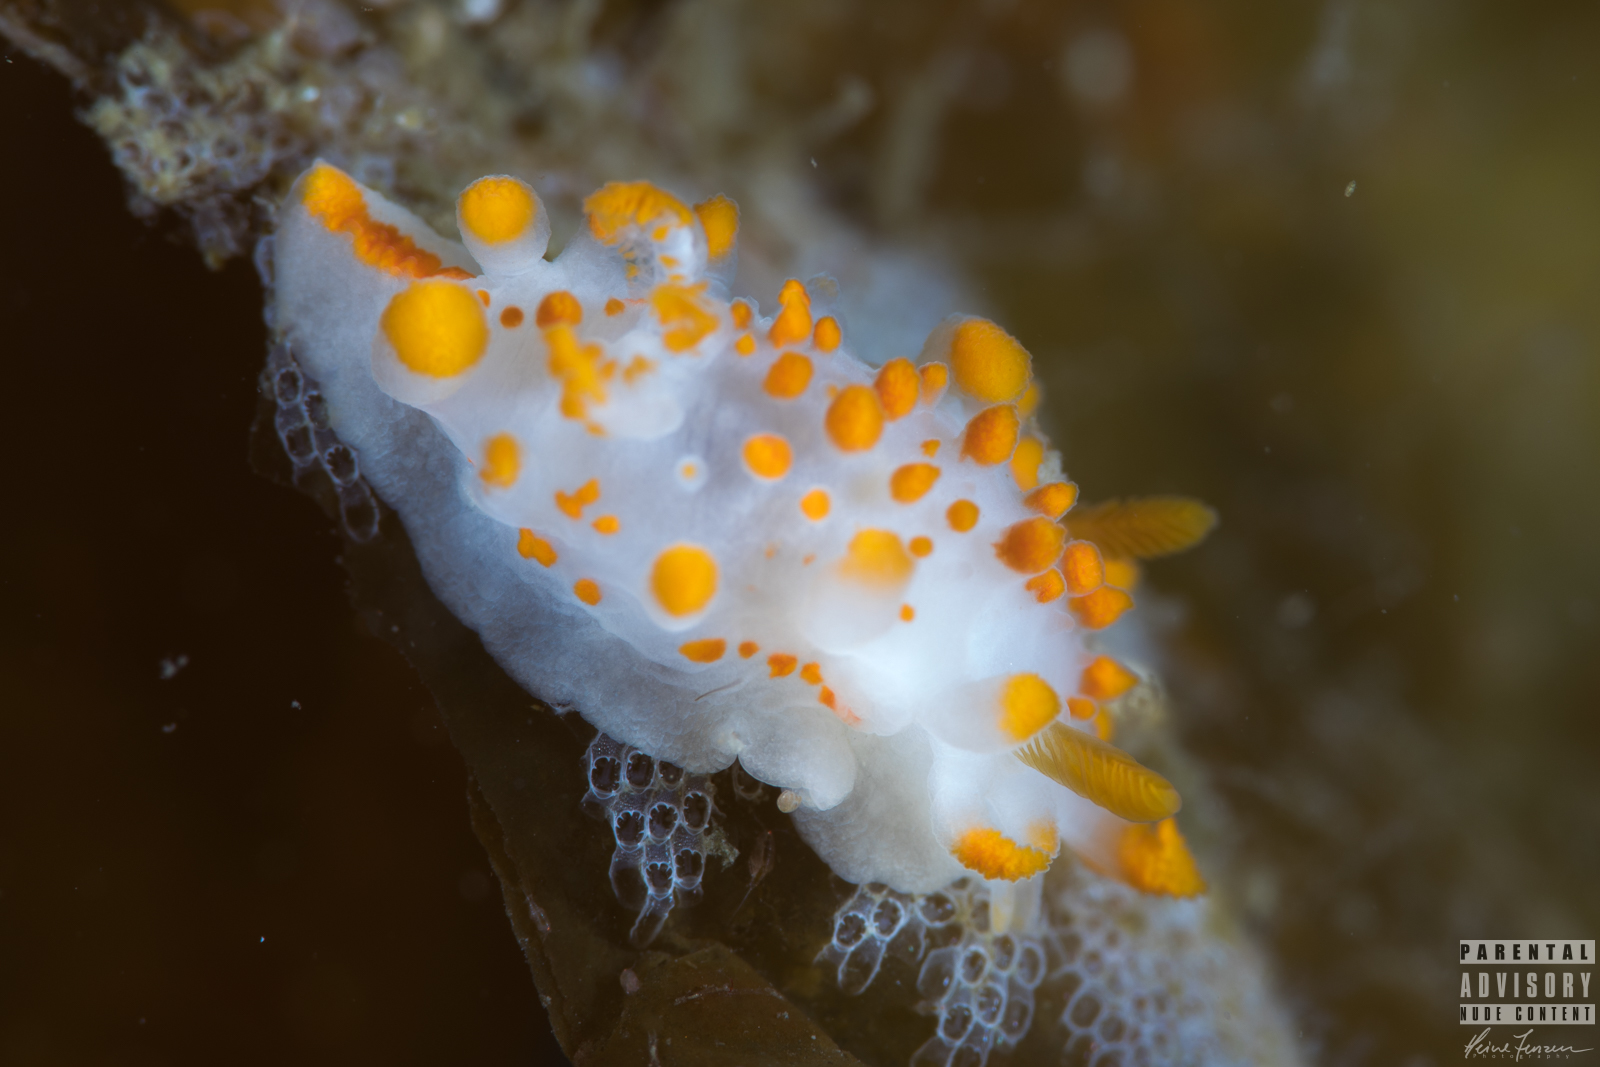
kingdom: Animalia
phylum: Mollusca
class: Gastropoda
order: Nudibranchia
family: Polyceridae
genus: Limacia
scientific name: Limacia clavigera
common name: Orange-clubbed sea slug
